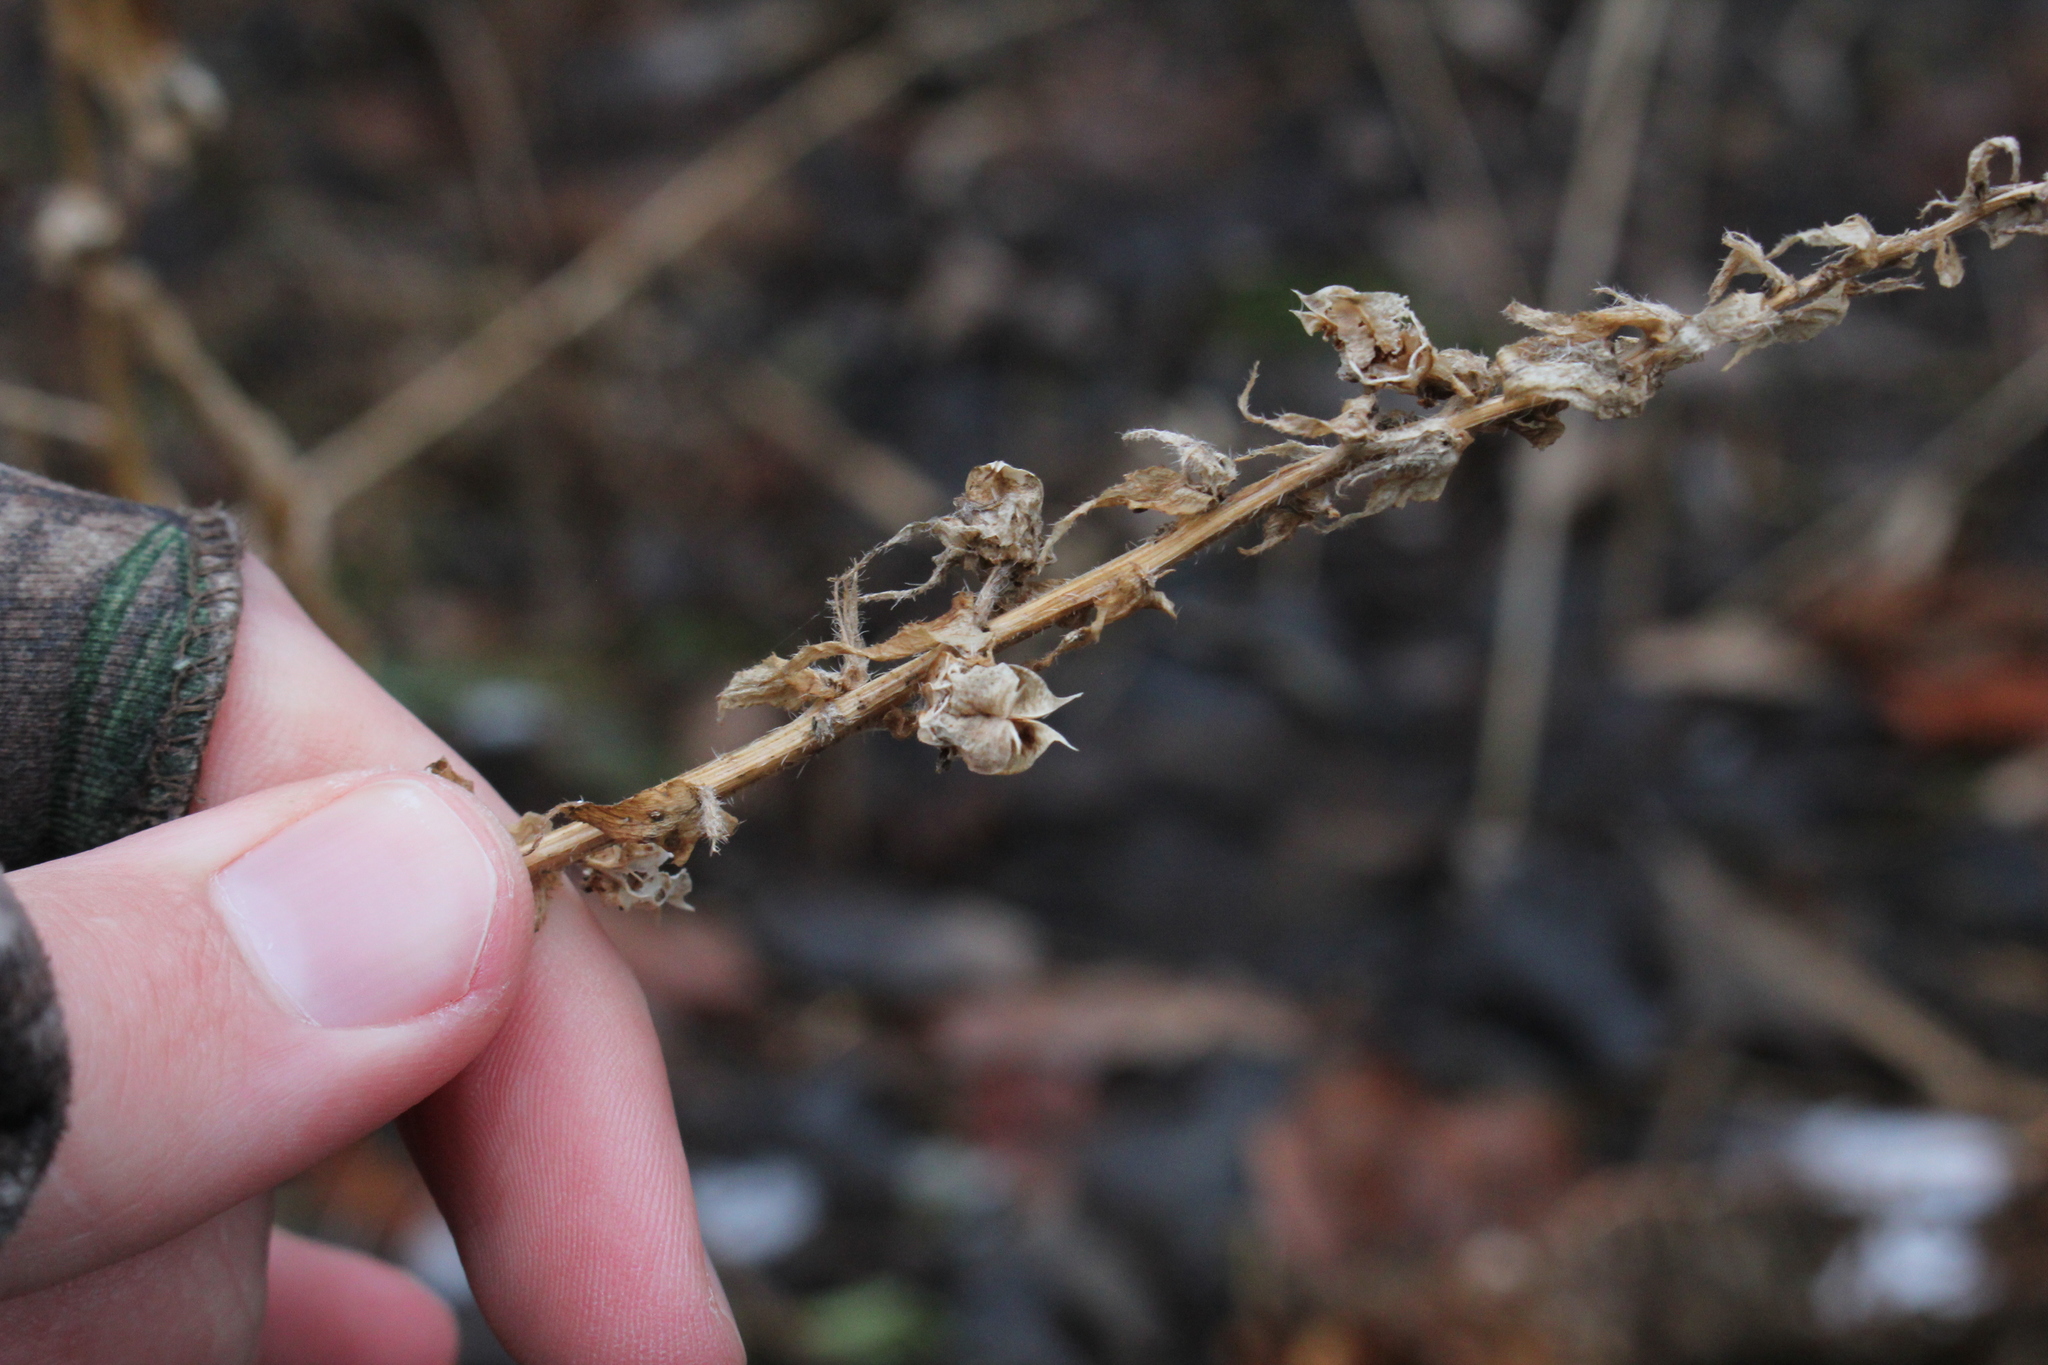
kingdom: Plantae
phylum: Tracheophyta
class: Magnoliopsida
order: Asterales
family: Campanulaceae
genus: Lobelia
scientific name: Lobelia siphilitica
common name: Great lobelia
